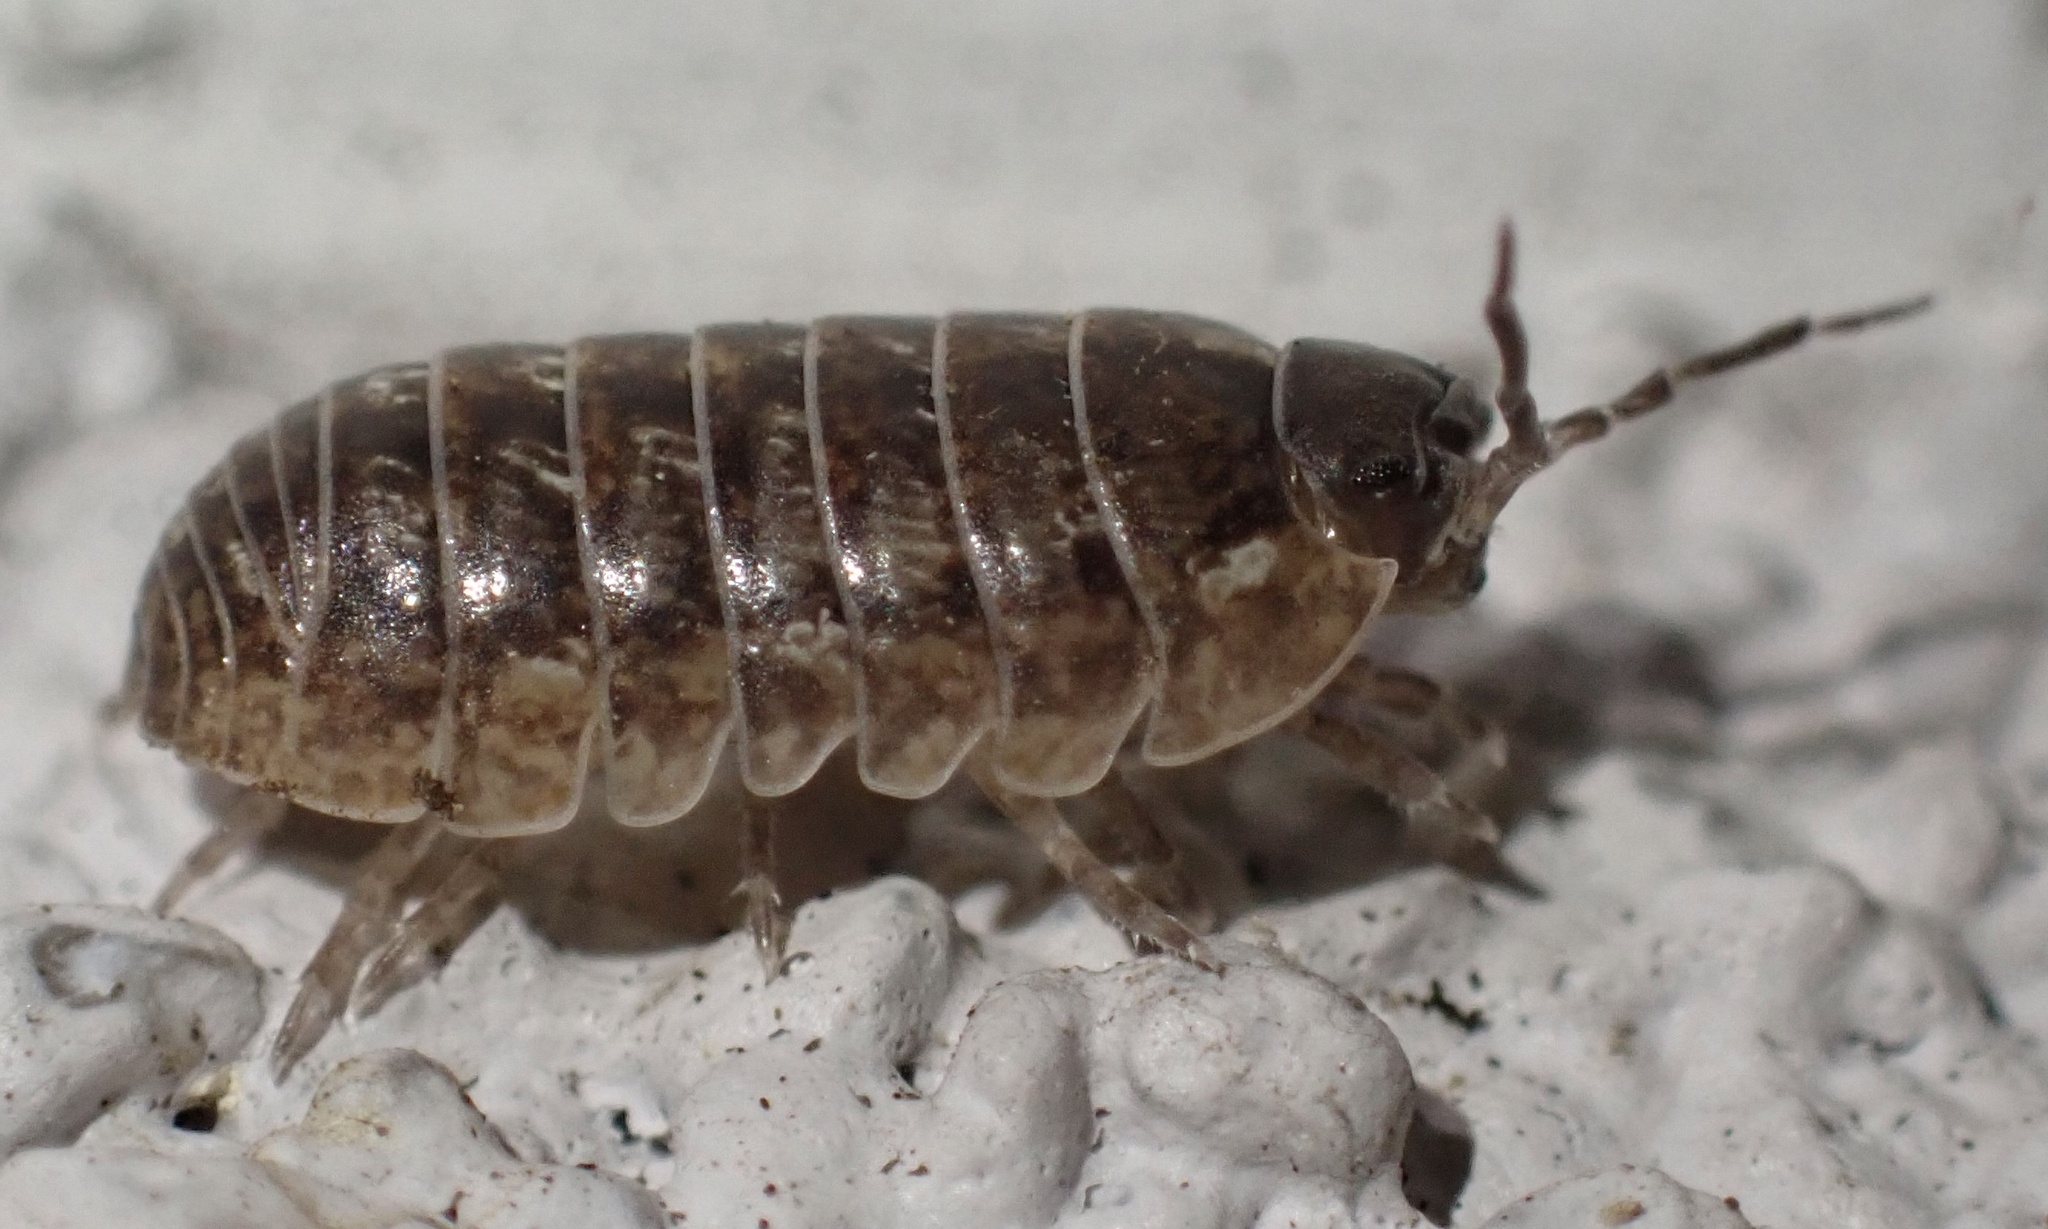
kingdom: Animalia
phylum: Arthropoda
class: Malacostraca
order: Isopoda
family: Armadillidiidae
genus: Armadillidium
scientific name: Armadillidium vulgare
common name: Common pill woodlouse
